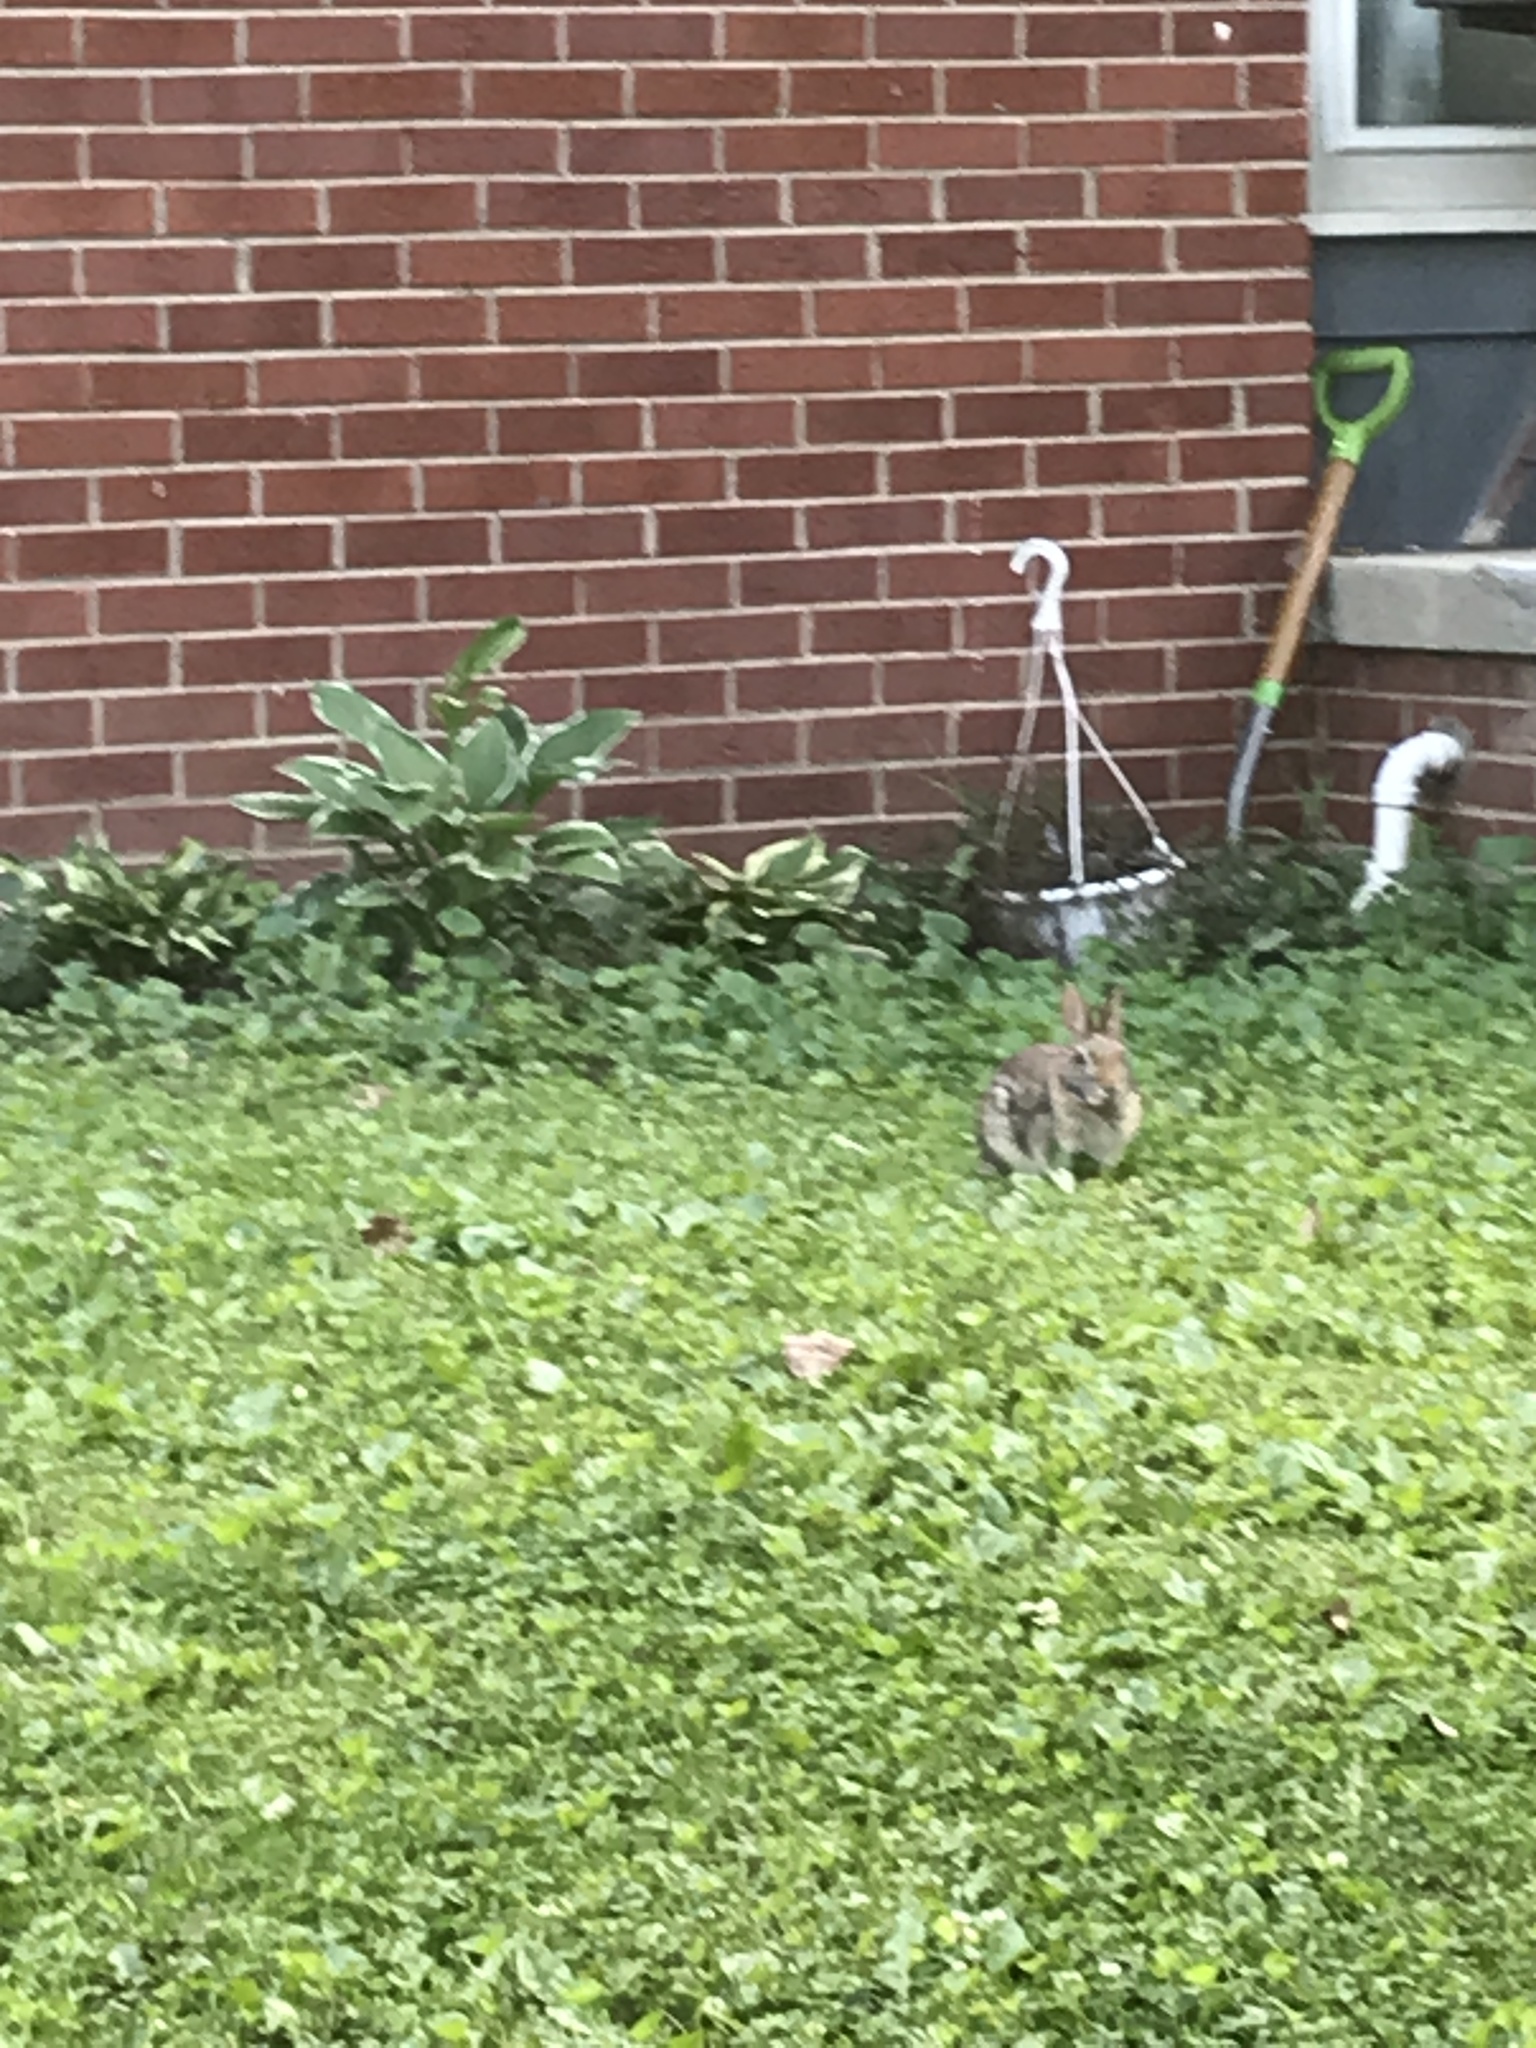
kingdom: Animalia
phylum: Chordata
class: Mammalia
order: Lagomorpha
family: Leporidae
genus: Sylvilagus
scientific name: Sylvilagus floridanus
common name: Eastern cottontail
